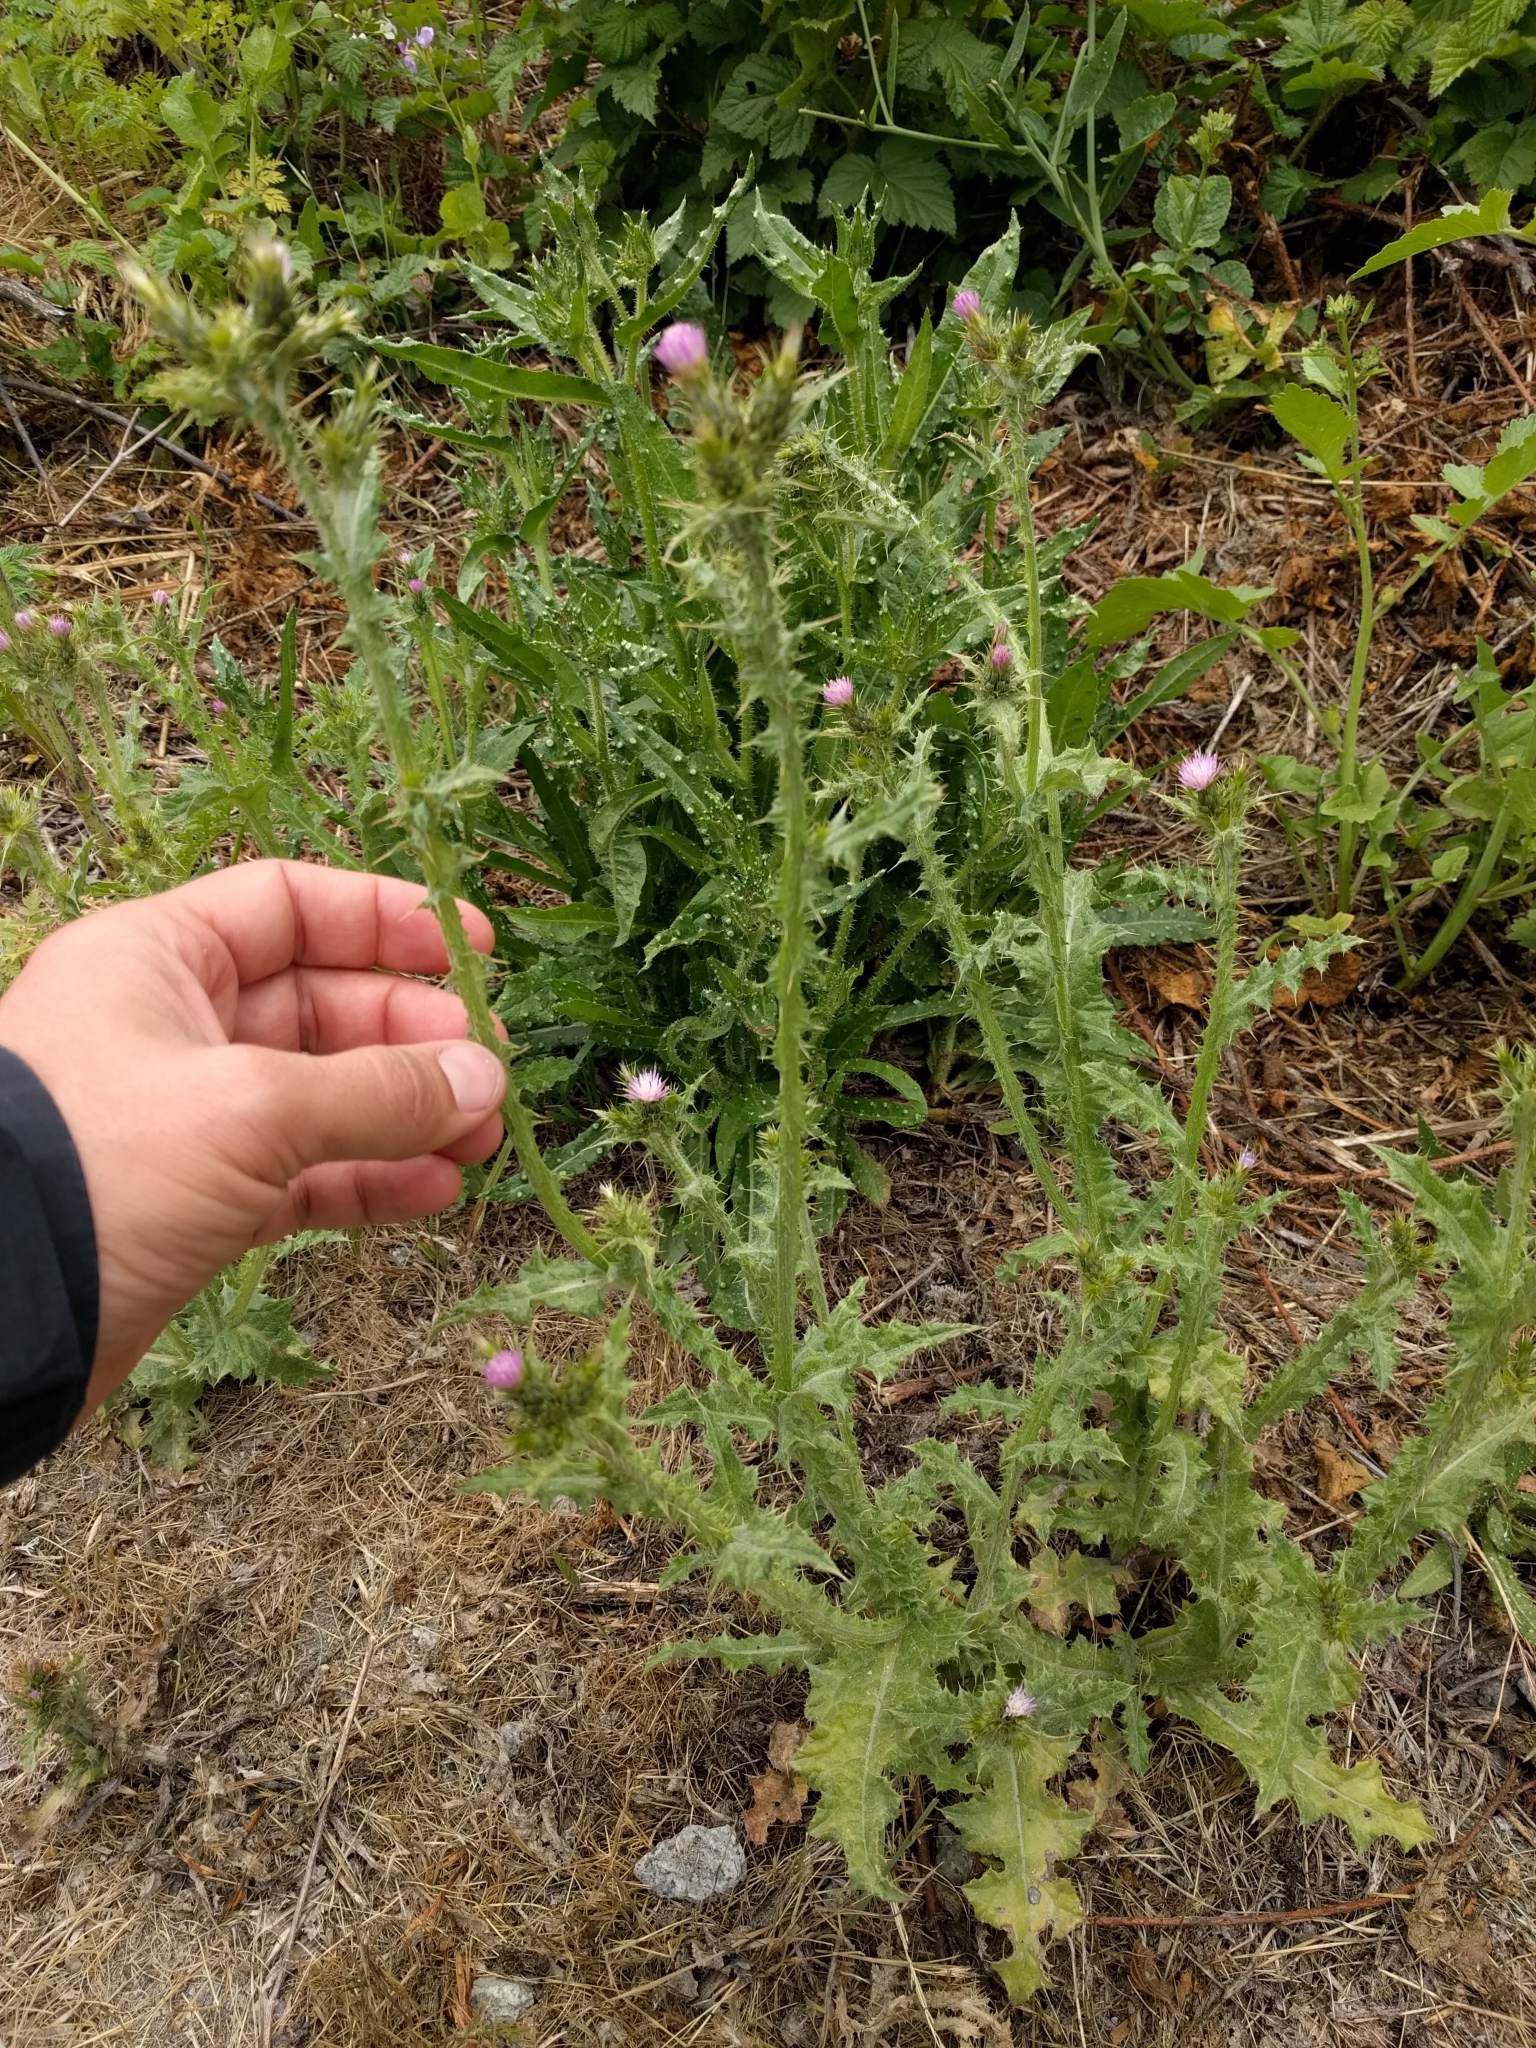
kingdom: Plantae
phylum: Tracheophyta
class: Magnoliopsida
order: Asterales
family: Asteraceae
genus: Carduus
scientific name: Carduus pycnocephalus
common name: Plymouth thistle
